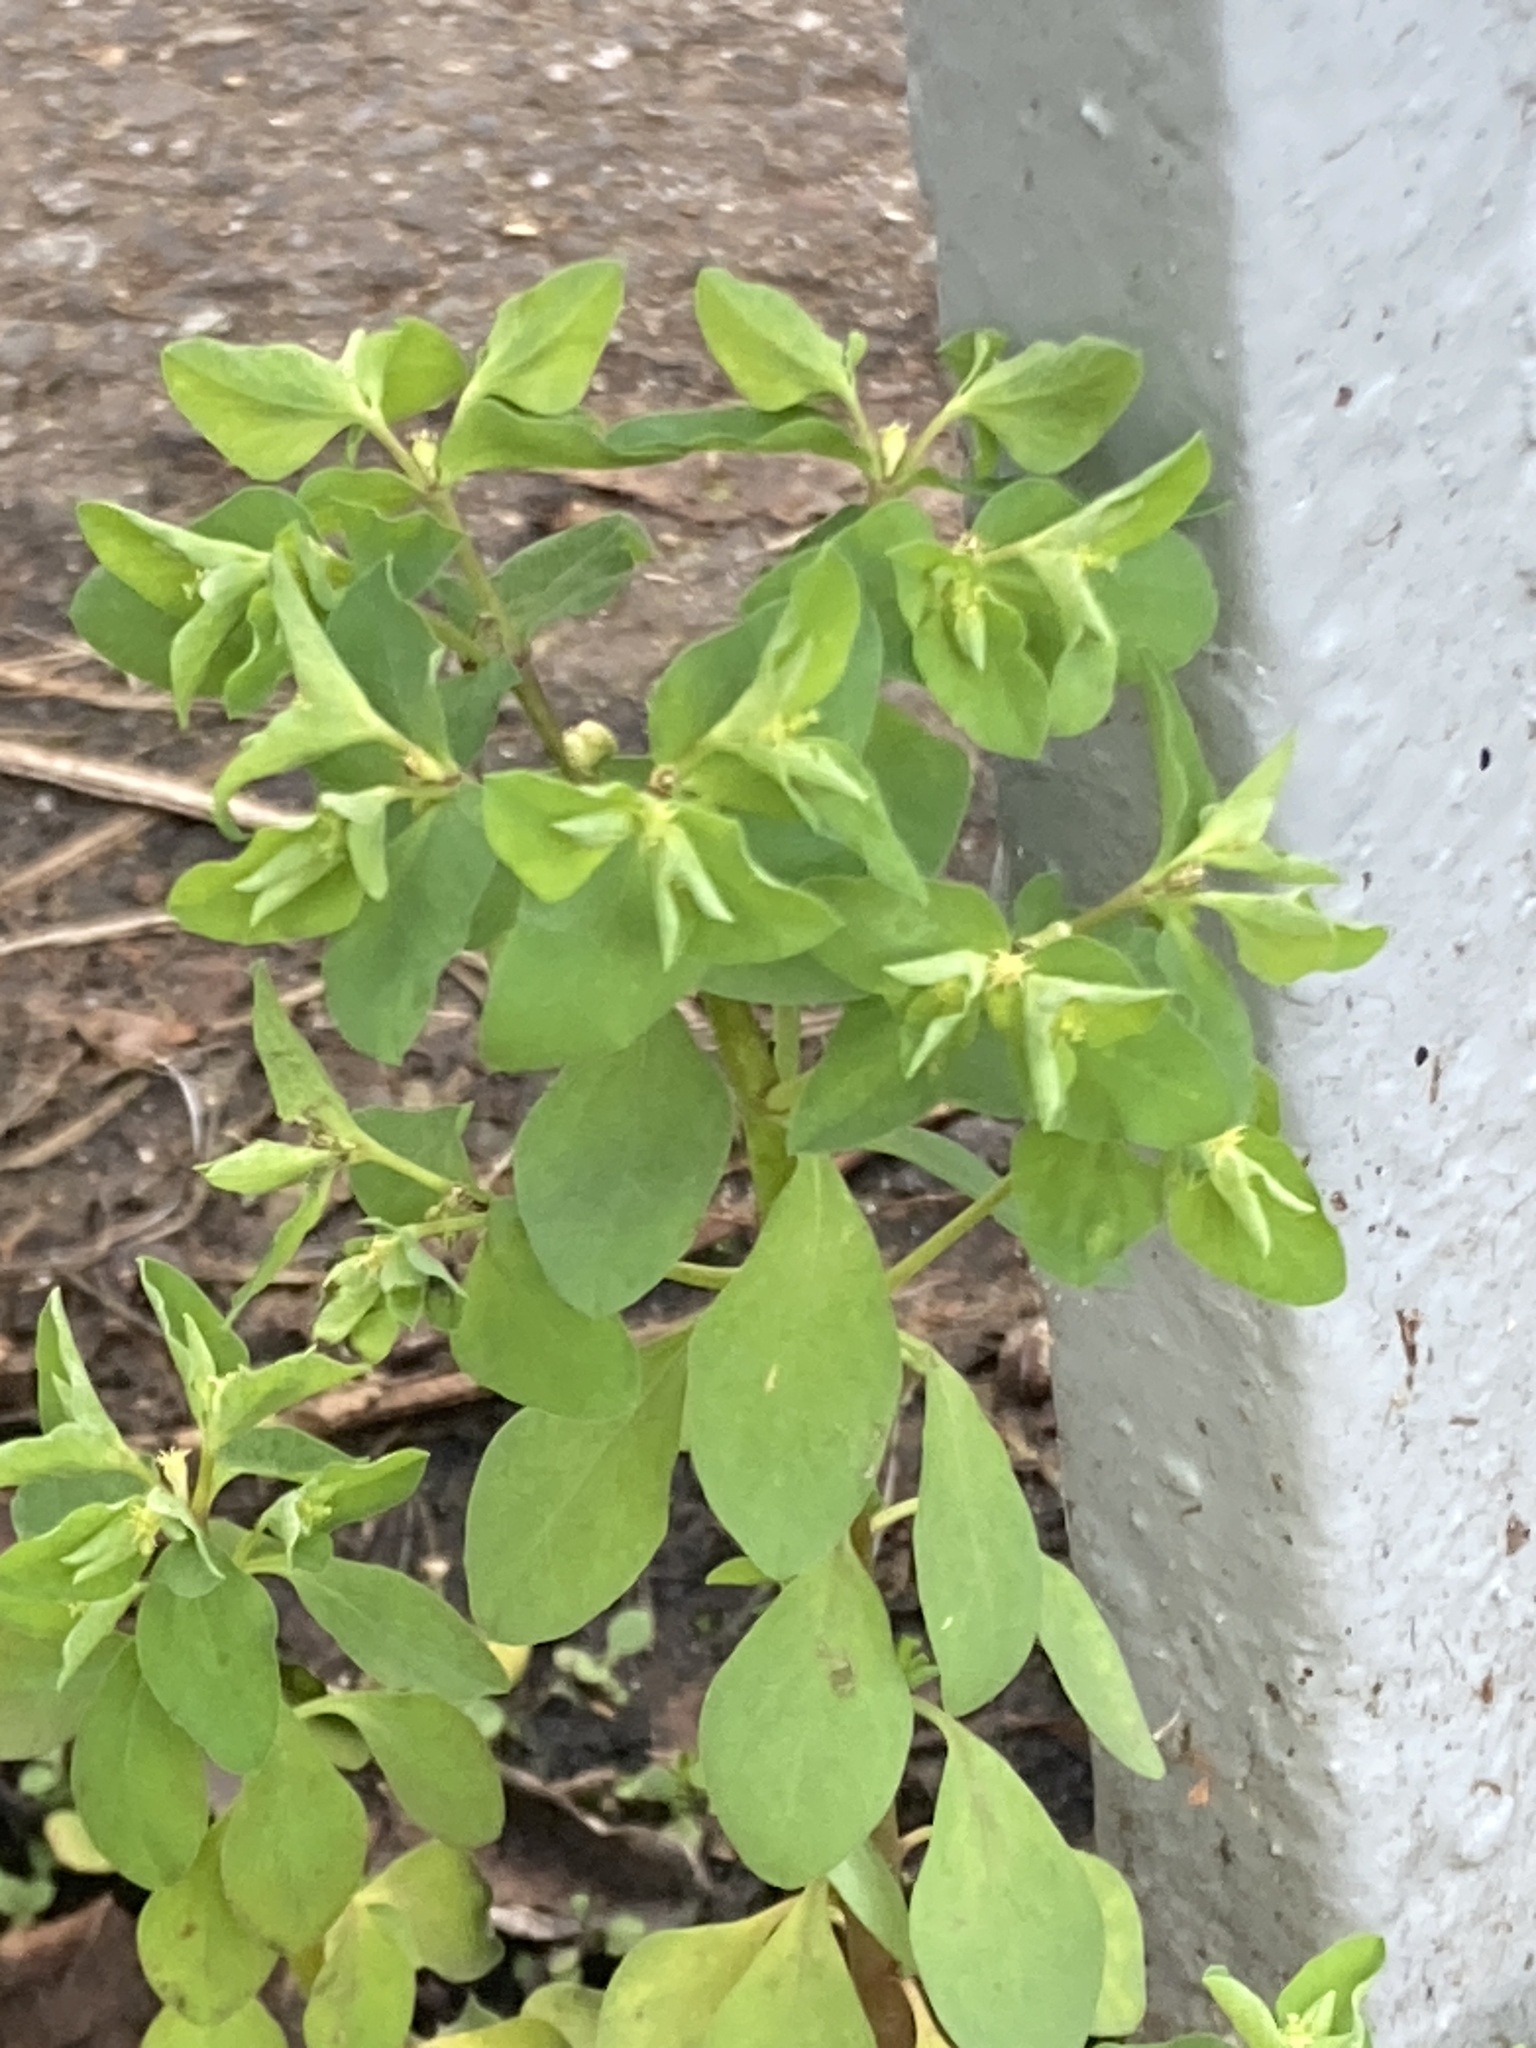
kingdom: Plantae
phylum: Tracheophyta
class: Magnoliopsida
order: Malpighiales
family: Euphorbiaceae
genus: Euphorbia
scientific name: Euphorbia peplus
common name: Petty spurge
